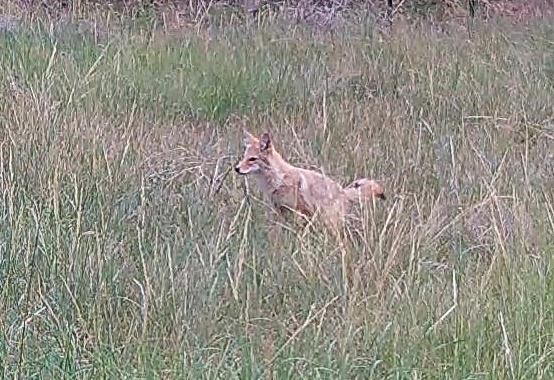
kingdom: Animalia
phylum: Chordata
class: Mammalia
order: Carnivora
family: Canidae
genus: Canis
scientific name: Canis latrans
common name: Coyote
